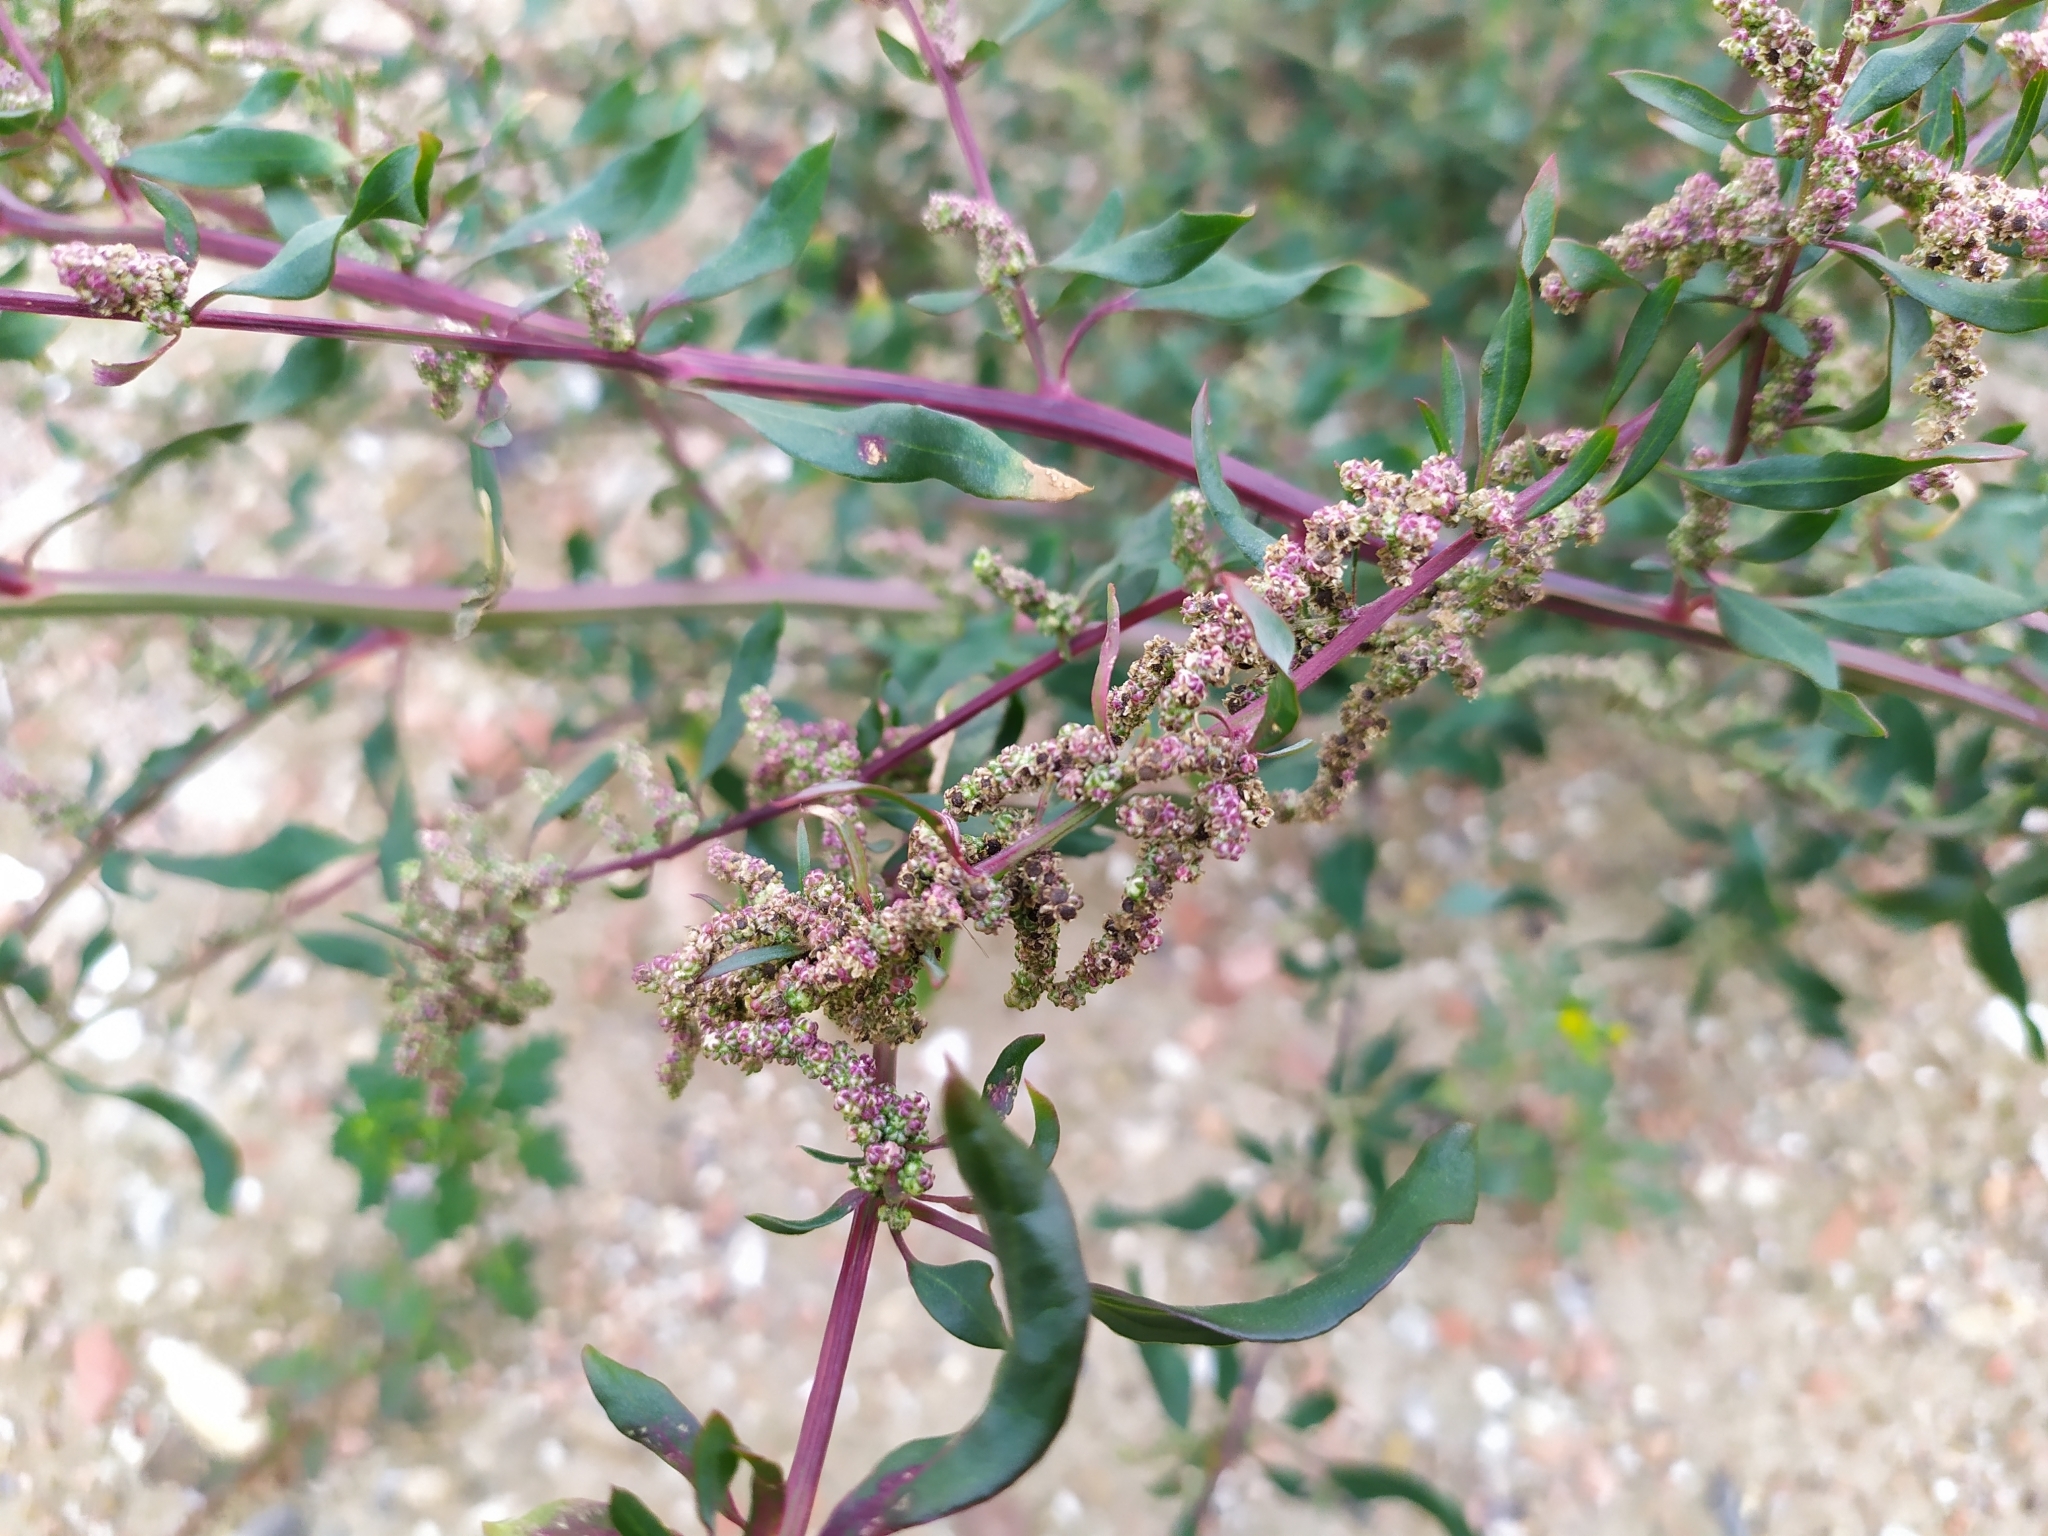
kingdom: Plantae
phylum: Tracheophyta
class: Magnoliopsida
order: Caryophyllales
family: Amaranthaceae
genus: Chenopodium
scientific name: Chenopodium betaceum
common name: Striped goosefoot
